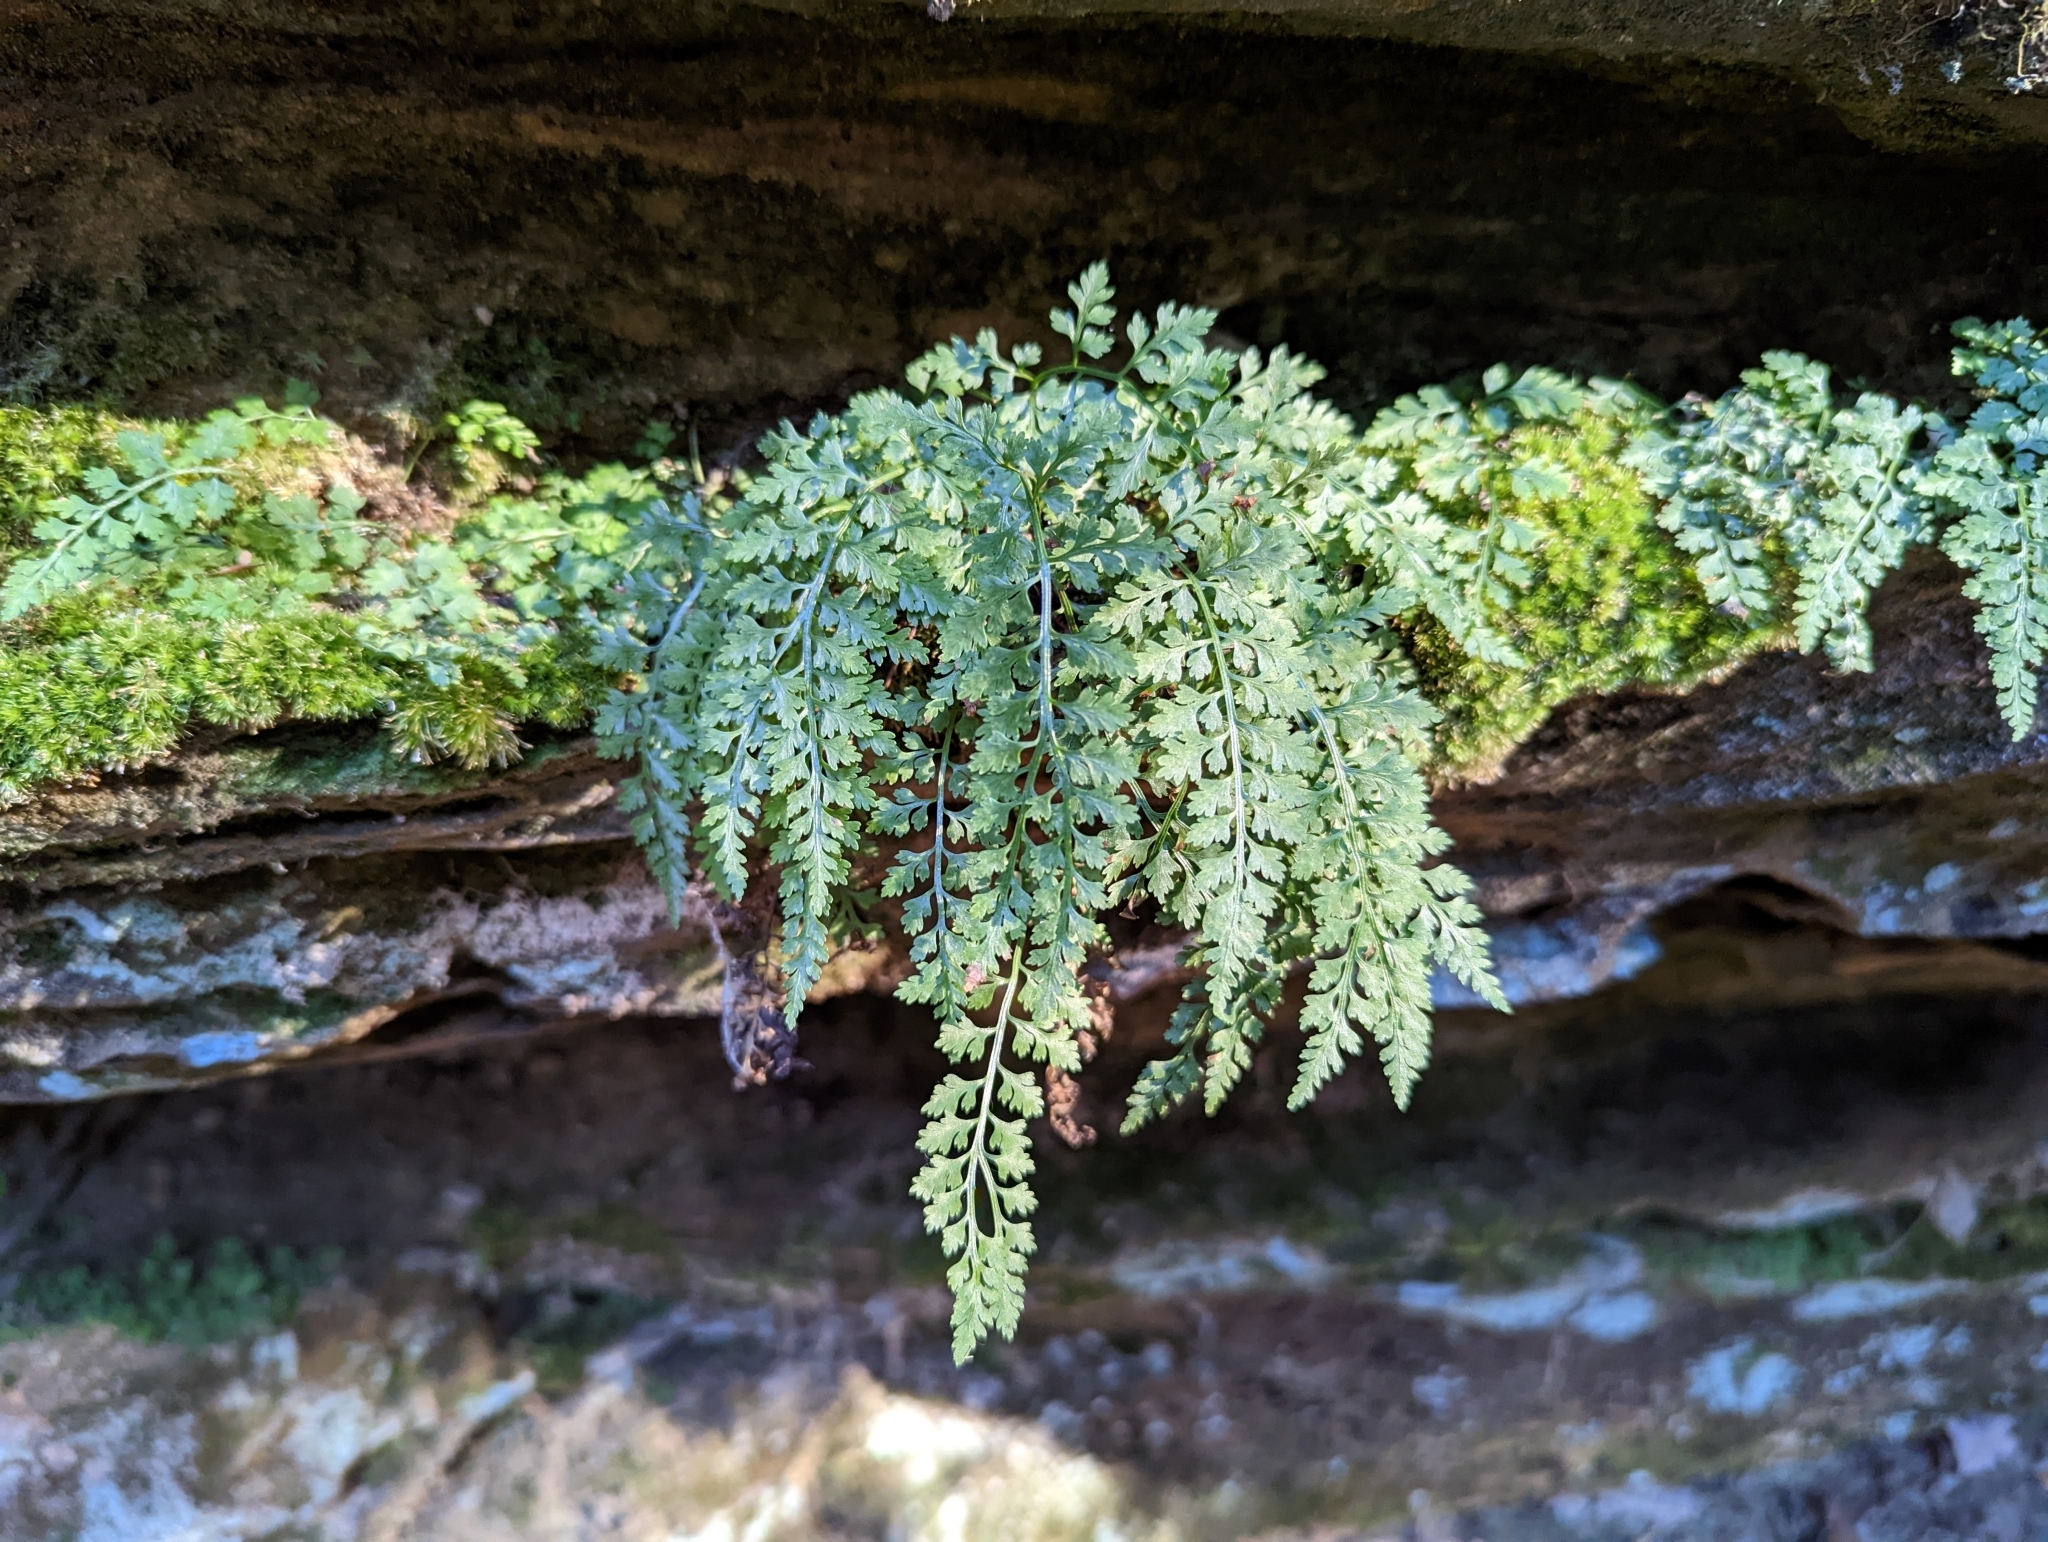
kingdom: Plantae
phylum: Tracheophyta
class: Polypodiopsida
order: Polypodiales
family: Aspleniaceae
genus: Asplenium
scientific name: Asplenium montanum
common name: Mountain spleenwort
